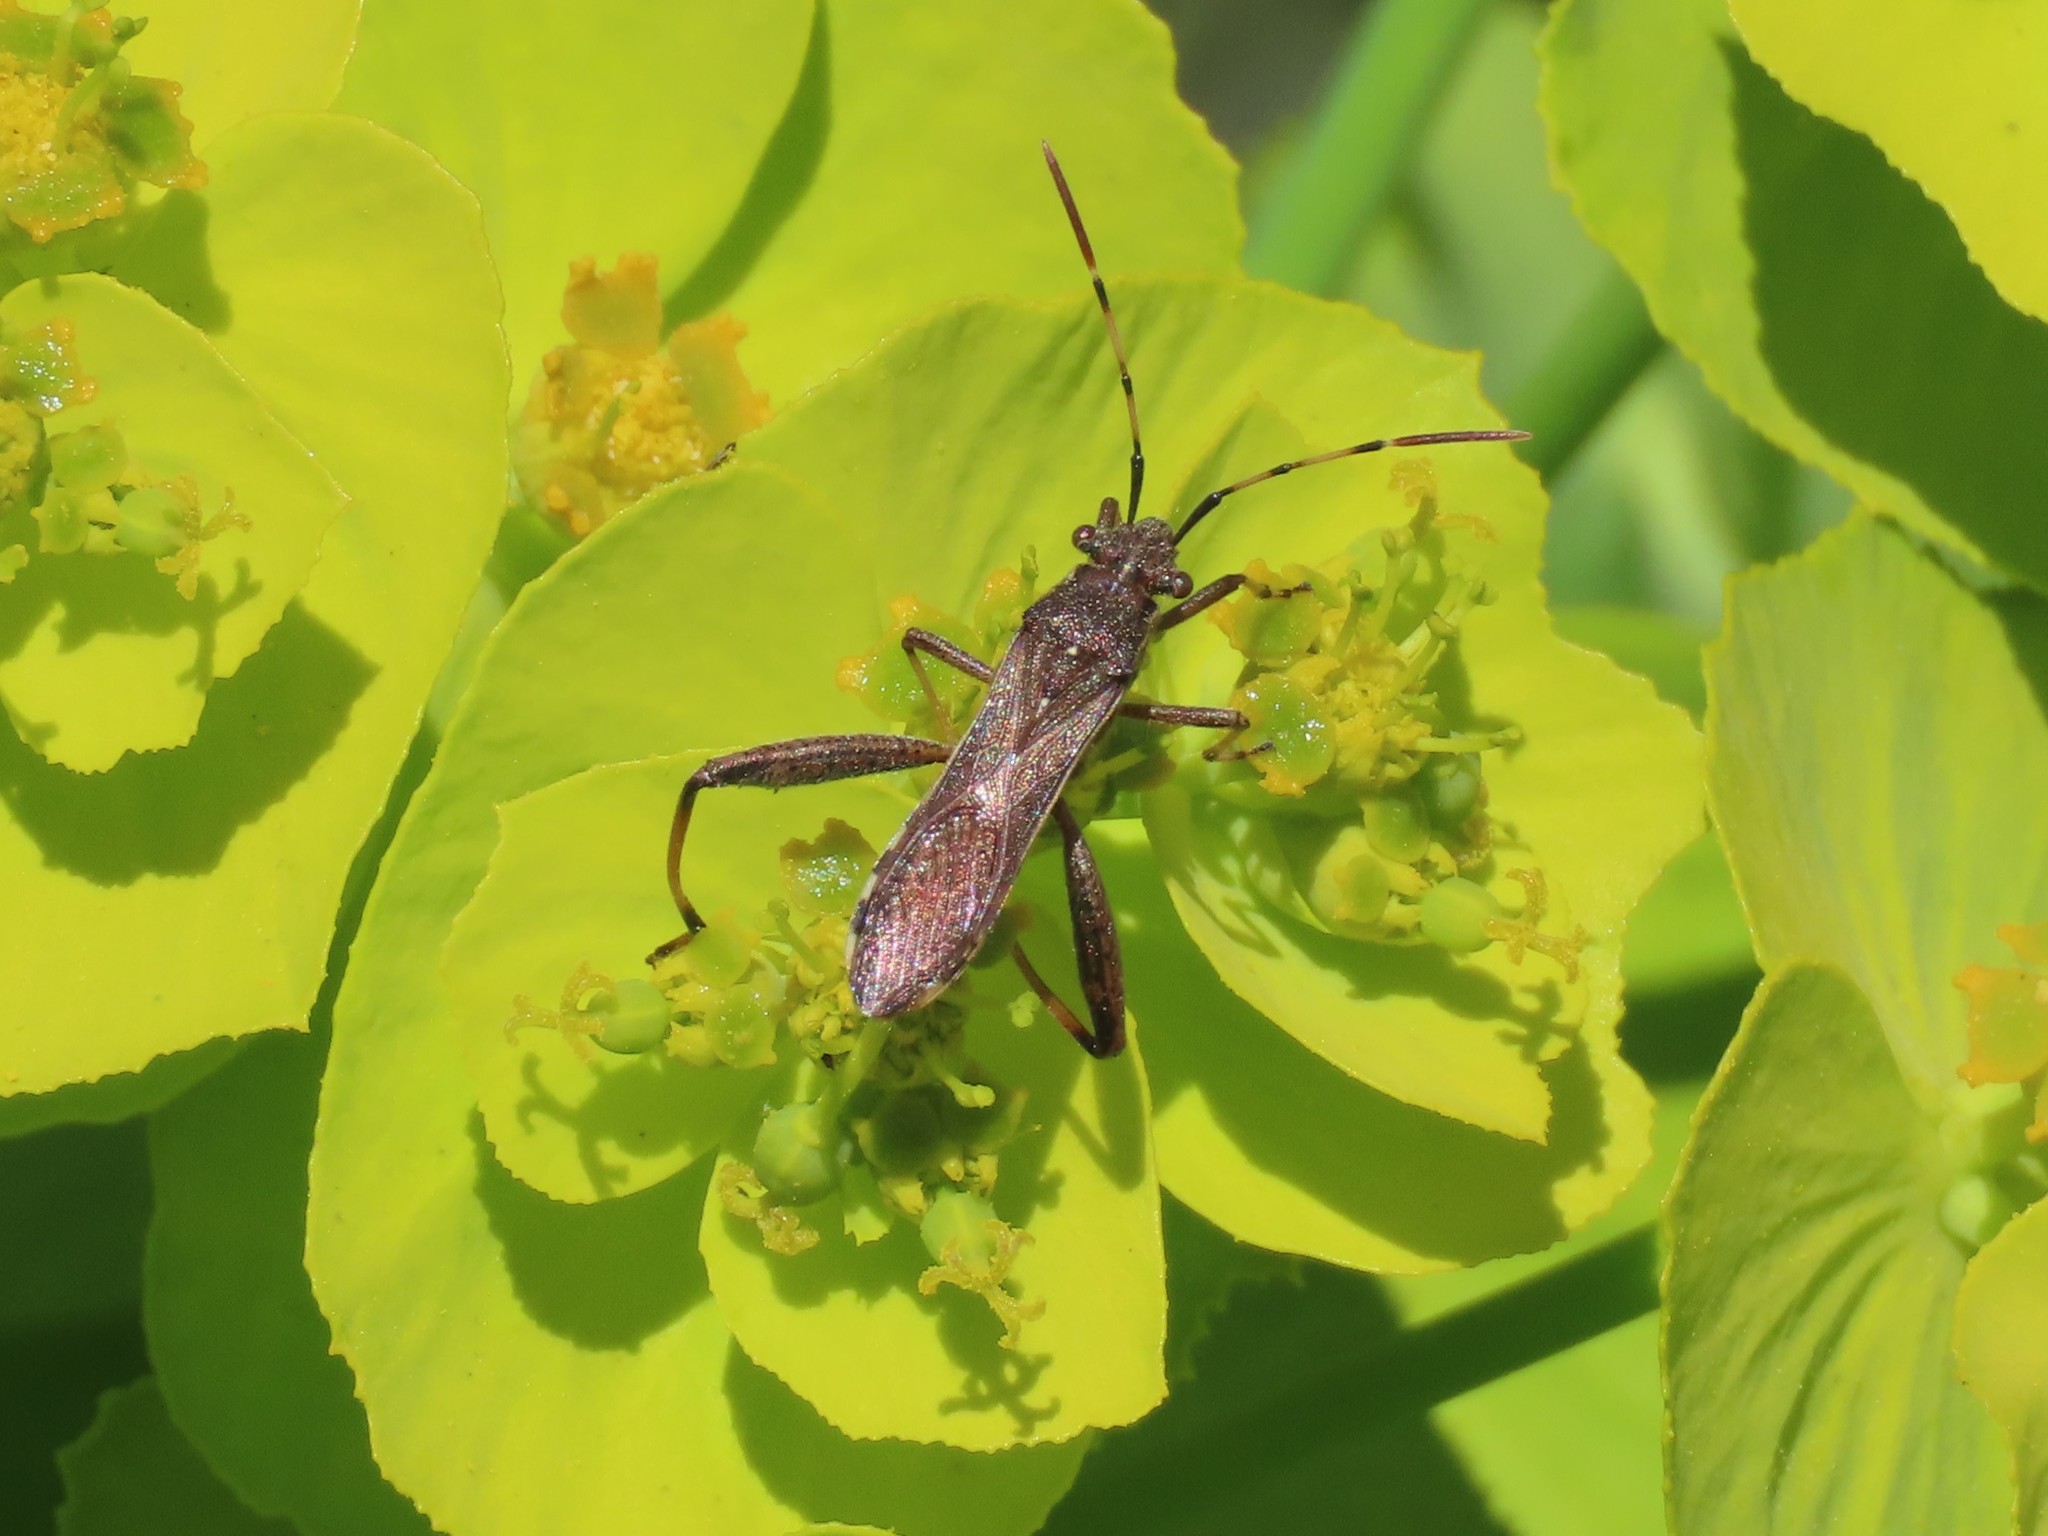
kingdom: Animalia
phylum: Arthropoda
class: Insecta
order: Hemiptera
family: Alydidae
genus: Camptopus
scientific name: Camptopus lateralis
